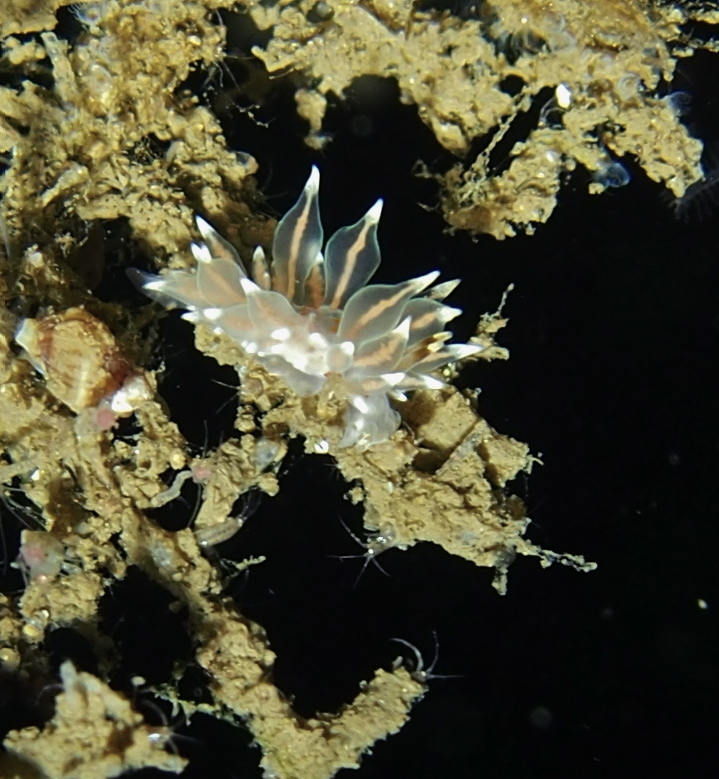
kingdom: Animalia
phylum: Mollusca
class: Gastropoda
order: Nudibranchia
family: Eubranchidae
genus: Amphorina
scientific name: Amphorina farrani
